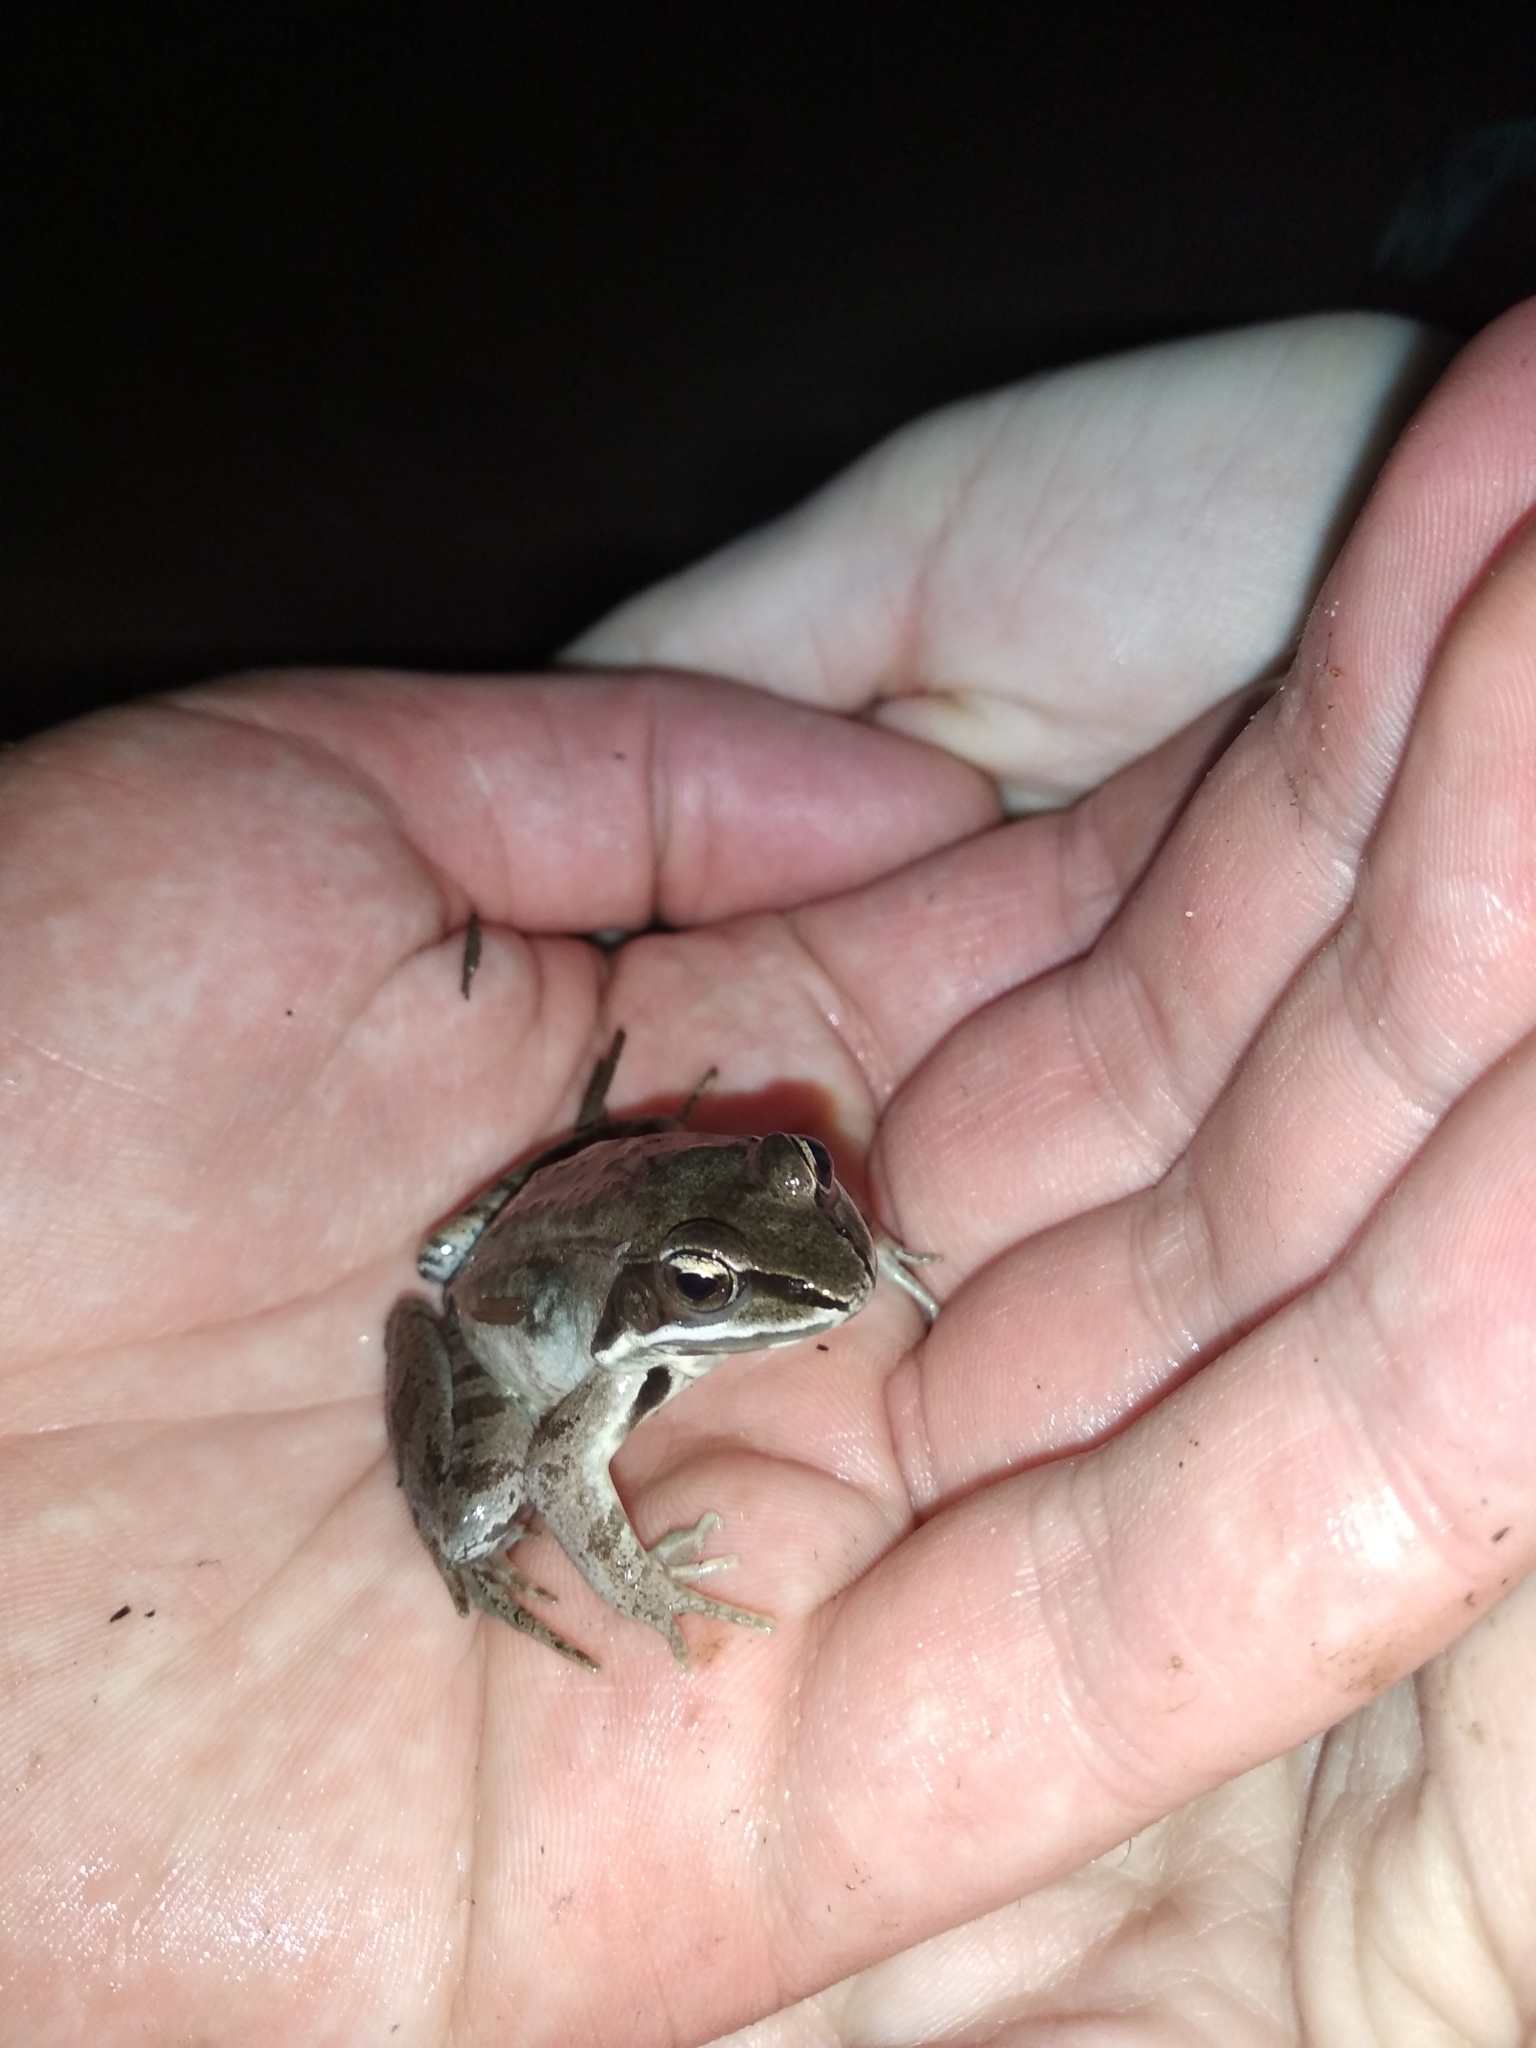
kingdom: Animalia
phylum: Chordata
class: Amphibia
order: Anura
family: Ranidae
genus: Lithobates
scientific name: Lithobates sylvaticus
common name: Wood frog
